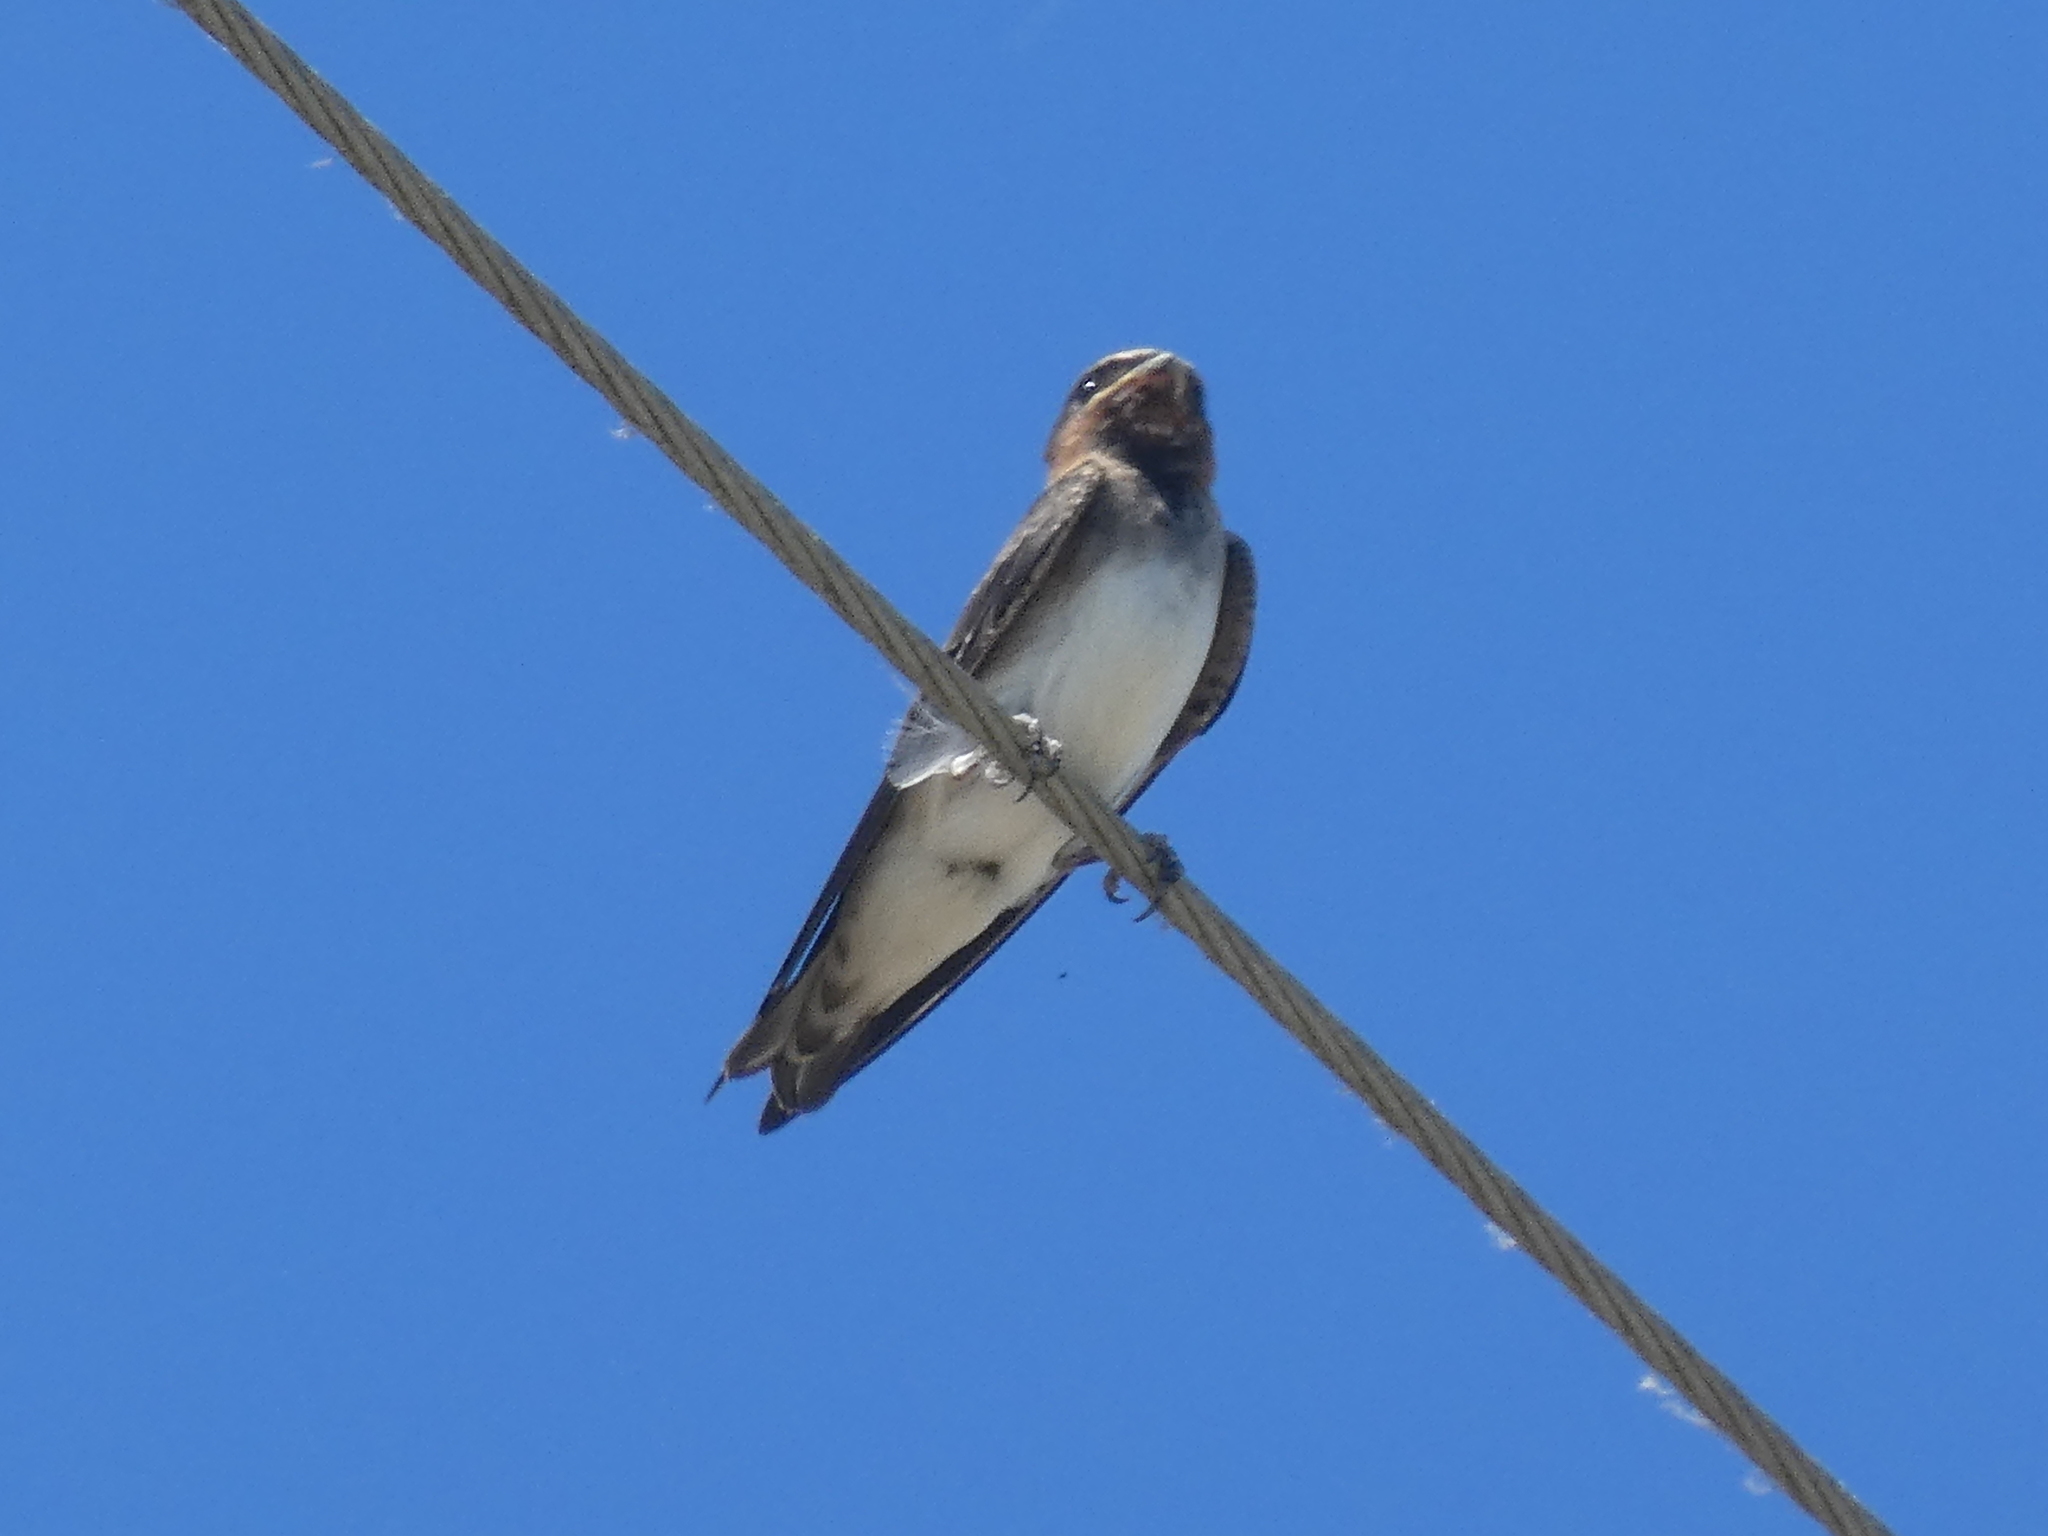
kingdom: Animalia
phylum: Chordata
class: Aves
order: Passeriformes
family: Hirundinidae
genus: Petrochelidon
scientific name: Petrochelidon pyrrhonota
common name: American cliff swallow
